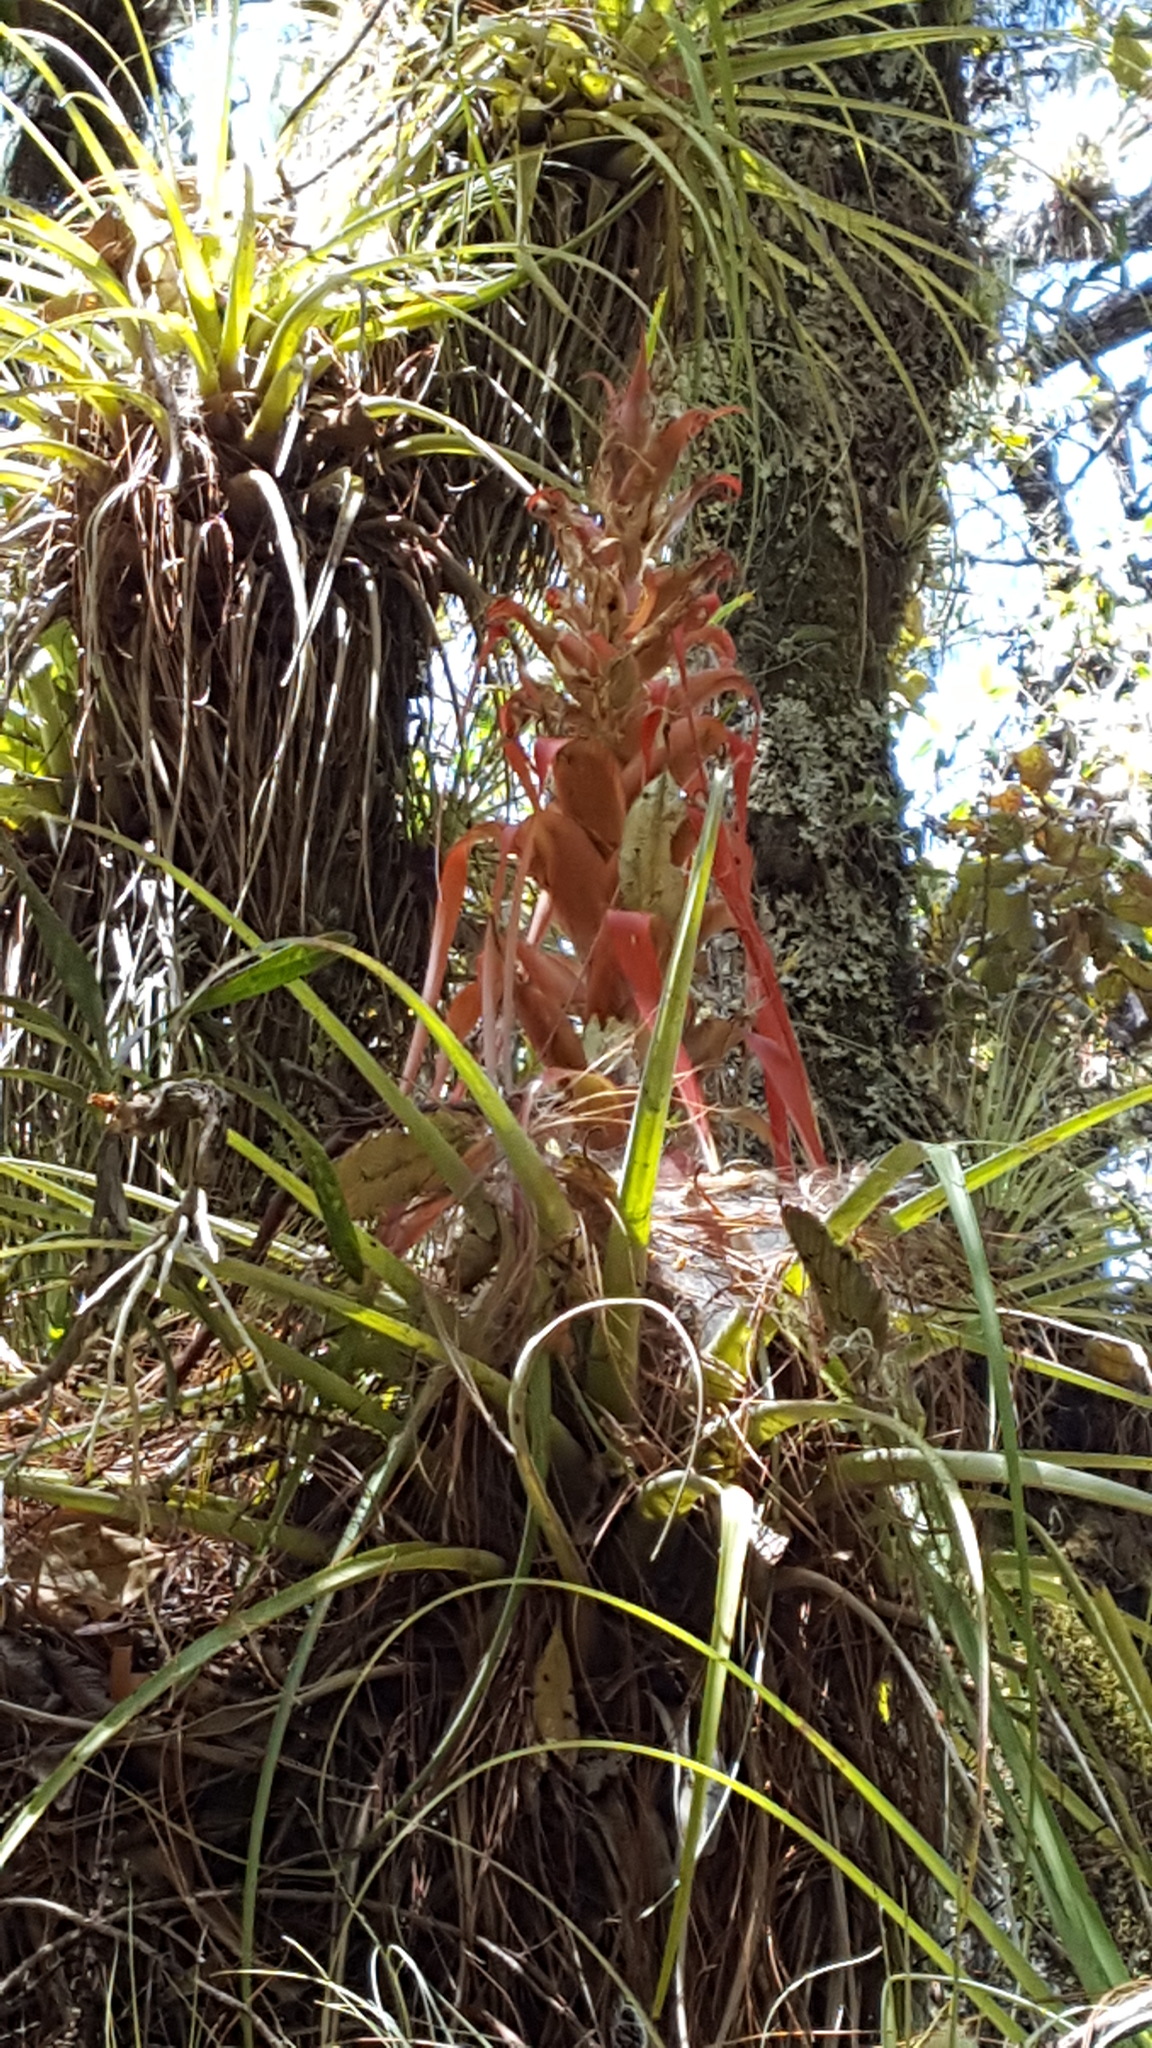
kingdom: Plantae
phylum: Tracheophyta
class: Liliopsida
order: Poales
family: Bromeliaceae
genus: Tillandsia
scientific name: Tillandsia bourgaei
